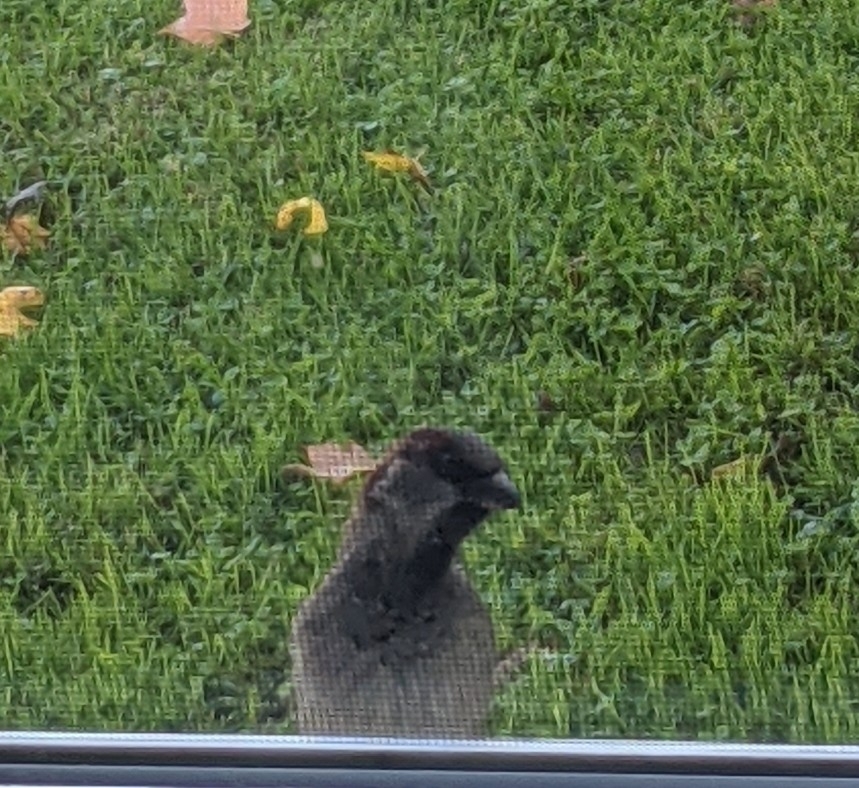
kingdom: Animalia
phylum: Chordata
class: Aves
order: Passeriformes
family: Passeridae
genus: Passer
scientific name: Passer domesticus
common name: House sparrow
